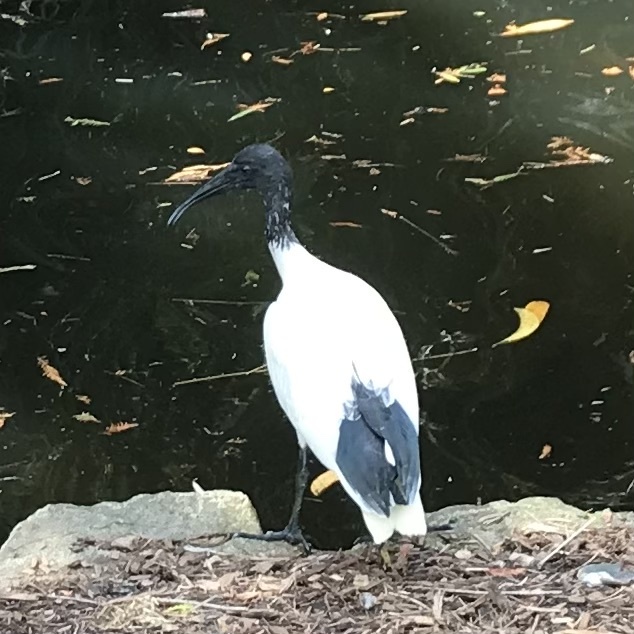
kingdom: Animalia
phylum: Chordata
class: Aves
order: Pelecaniformes
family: Threskiornithidae
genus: Threskiornis
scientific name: Threskiornis molucca
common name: Australian white ibis
